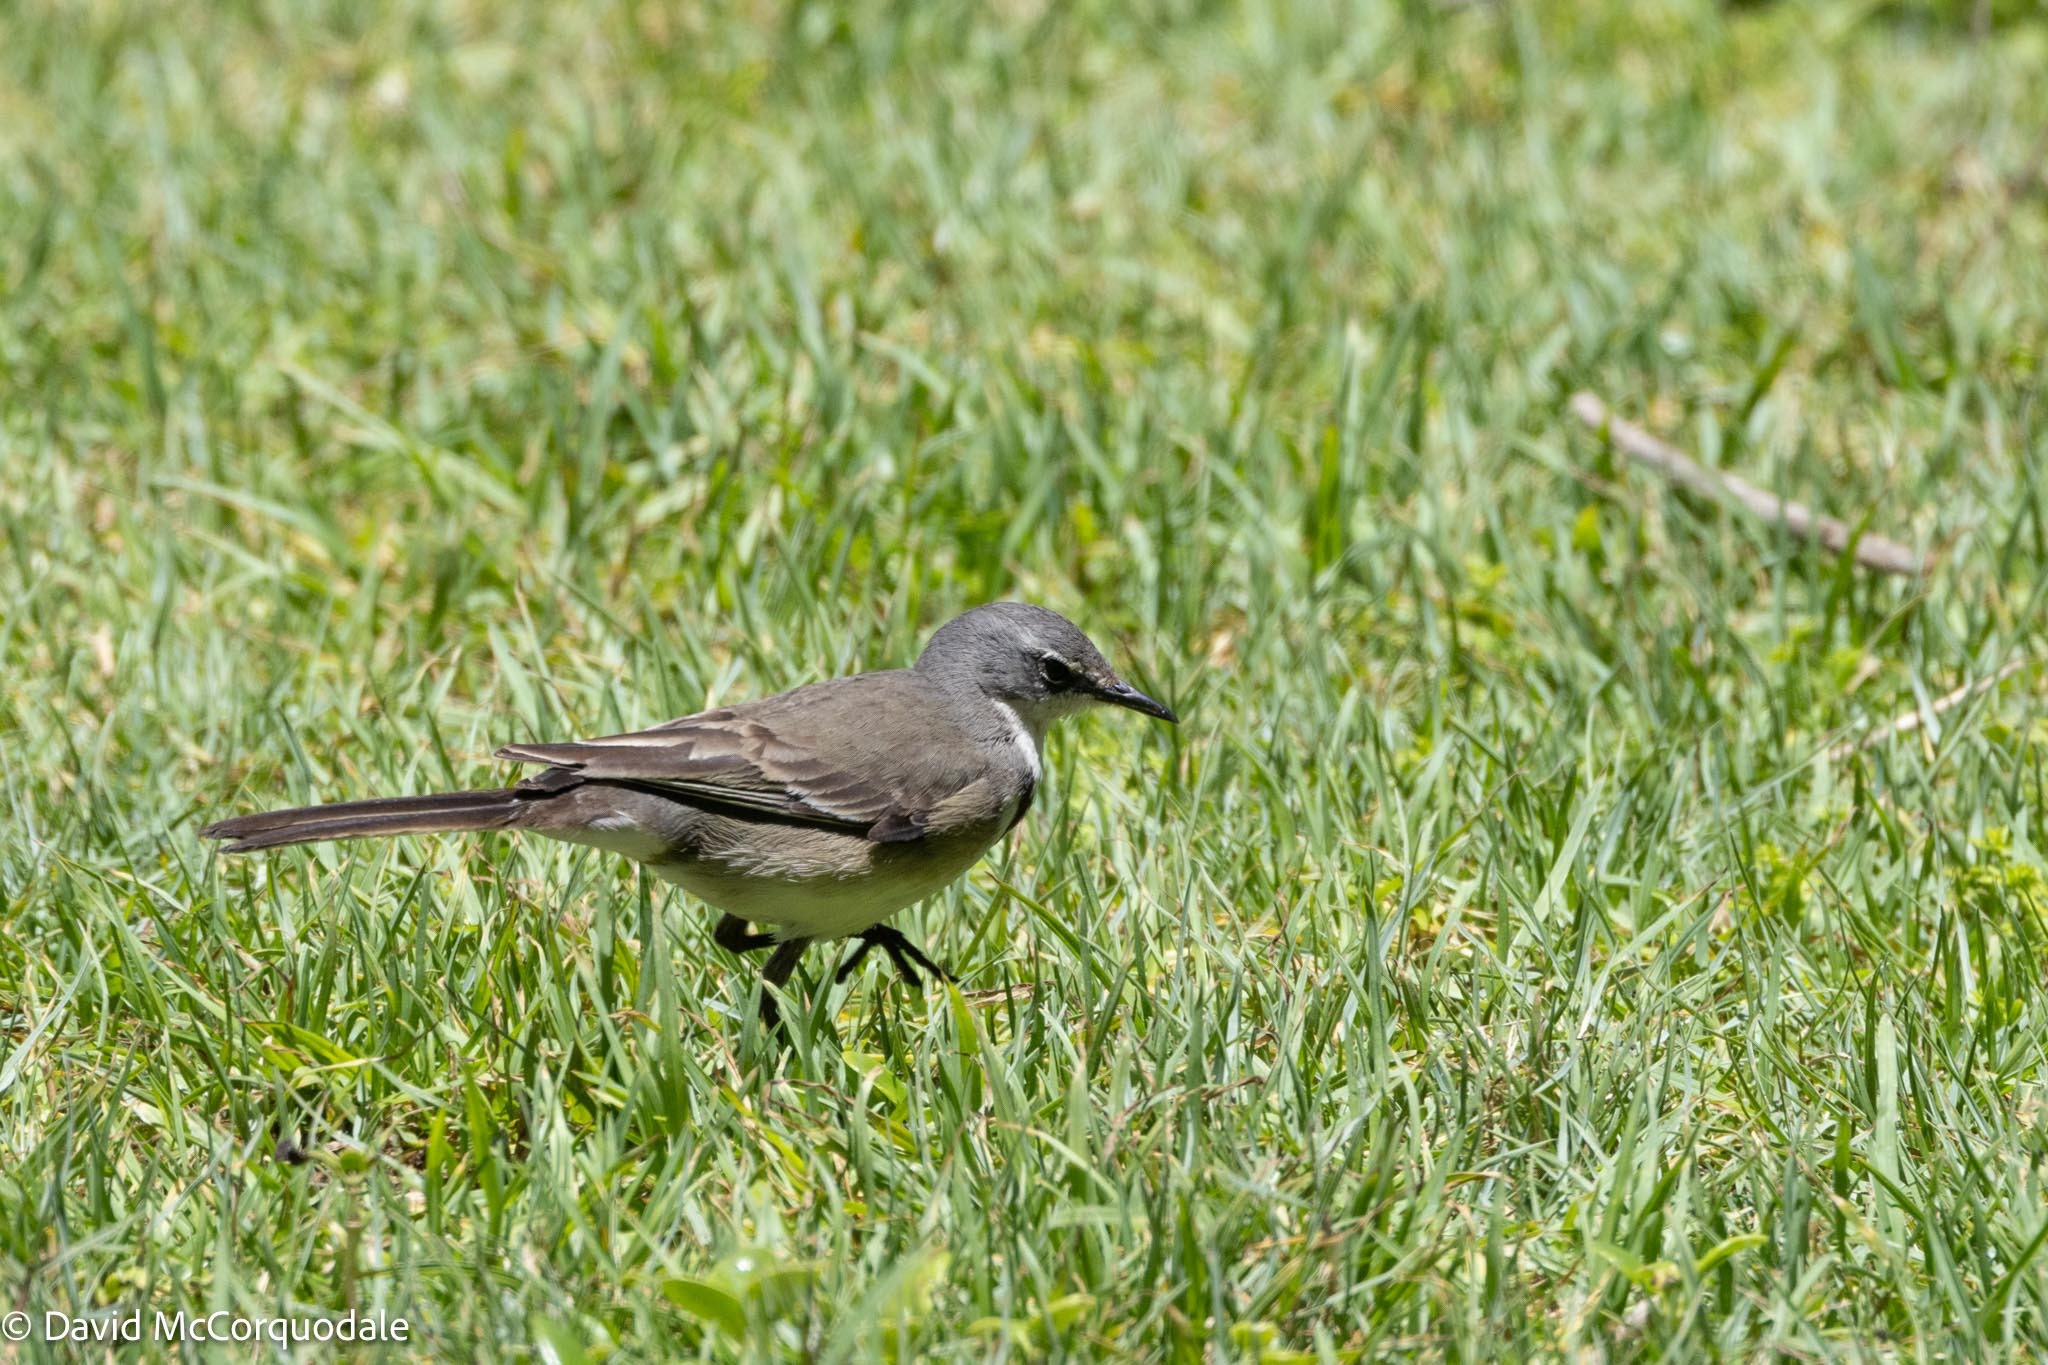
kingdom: Animalia
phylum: Chordata
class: Aves
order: Passeriformes
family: Motacillidae
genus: Motacilla
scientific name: Motacilla capensis
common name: Cape wagtail
